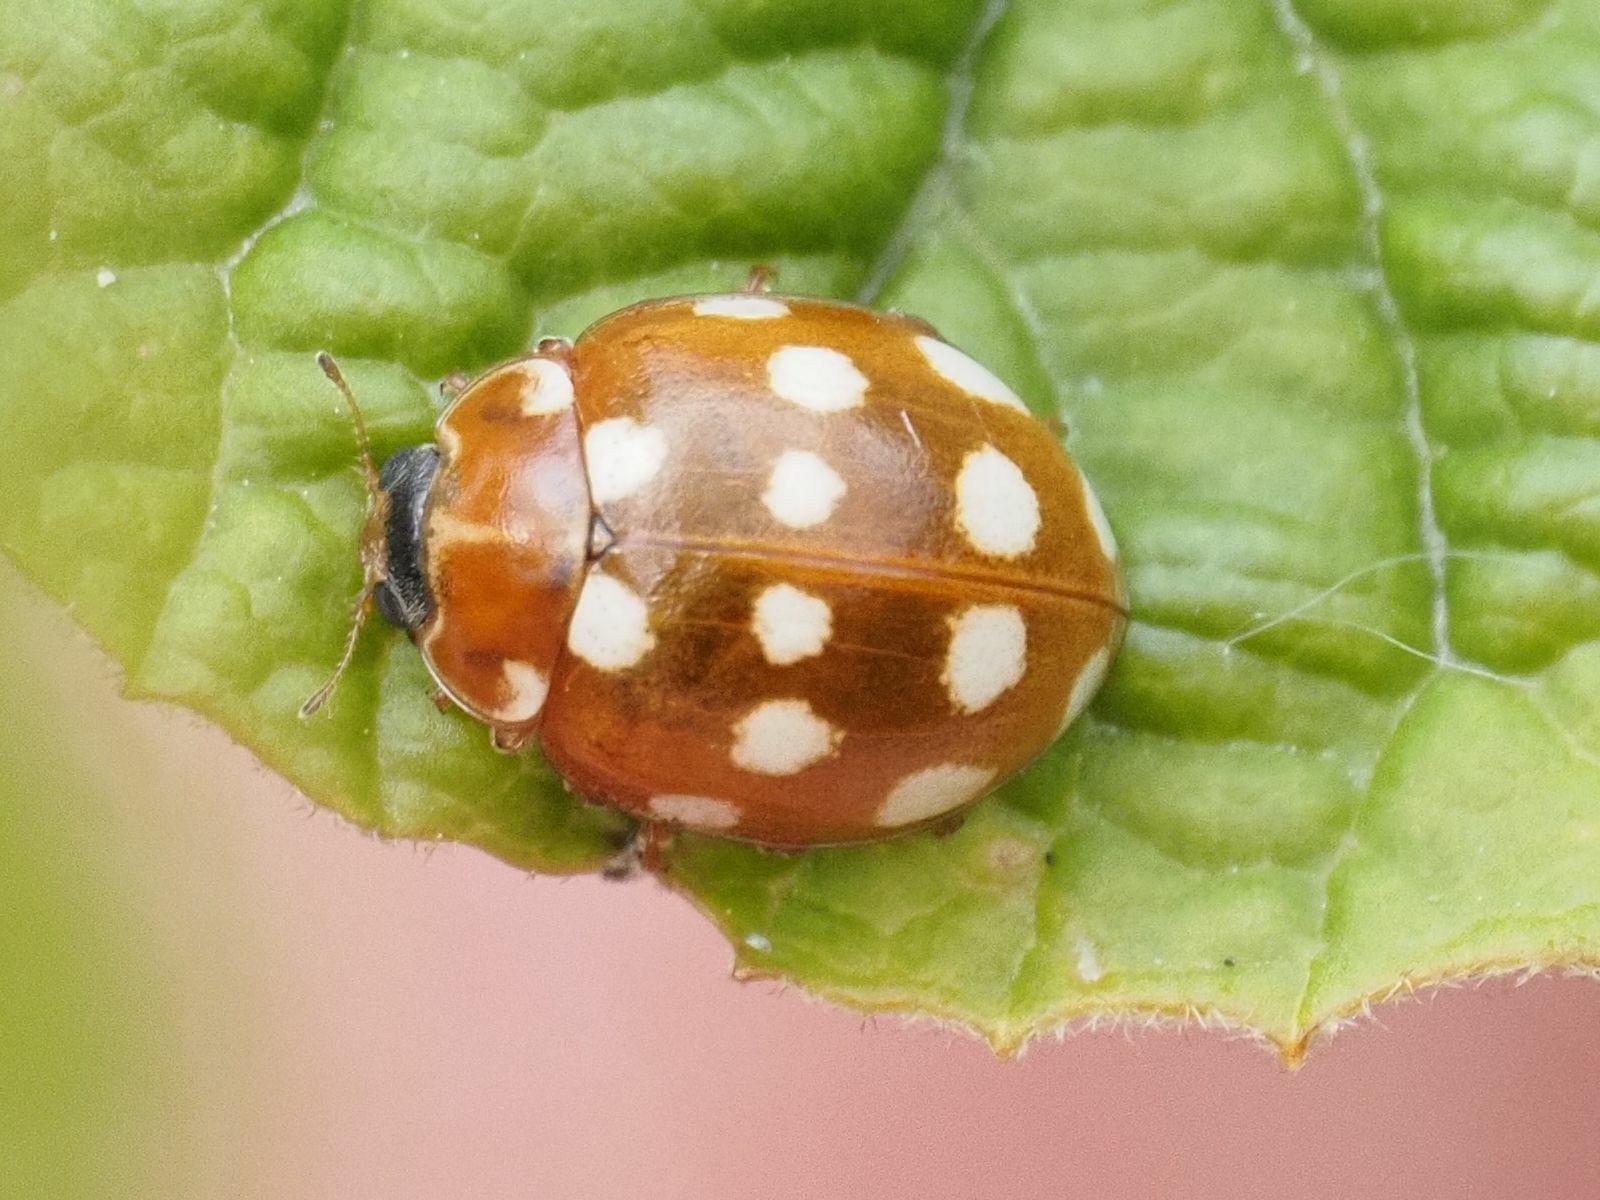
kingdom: Animalia
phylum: Arthropoda
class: Insecta
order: Coleoptera
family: Coccinellidae
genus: Calvia
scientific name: Calvia quatuordecimguttata
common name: Cream-spot ladybird
